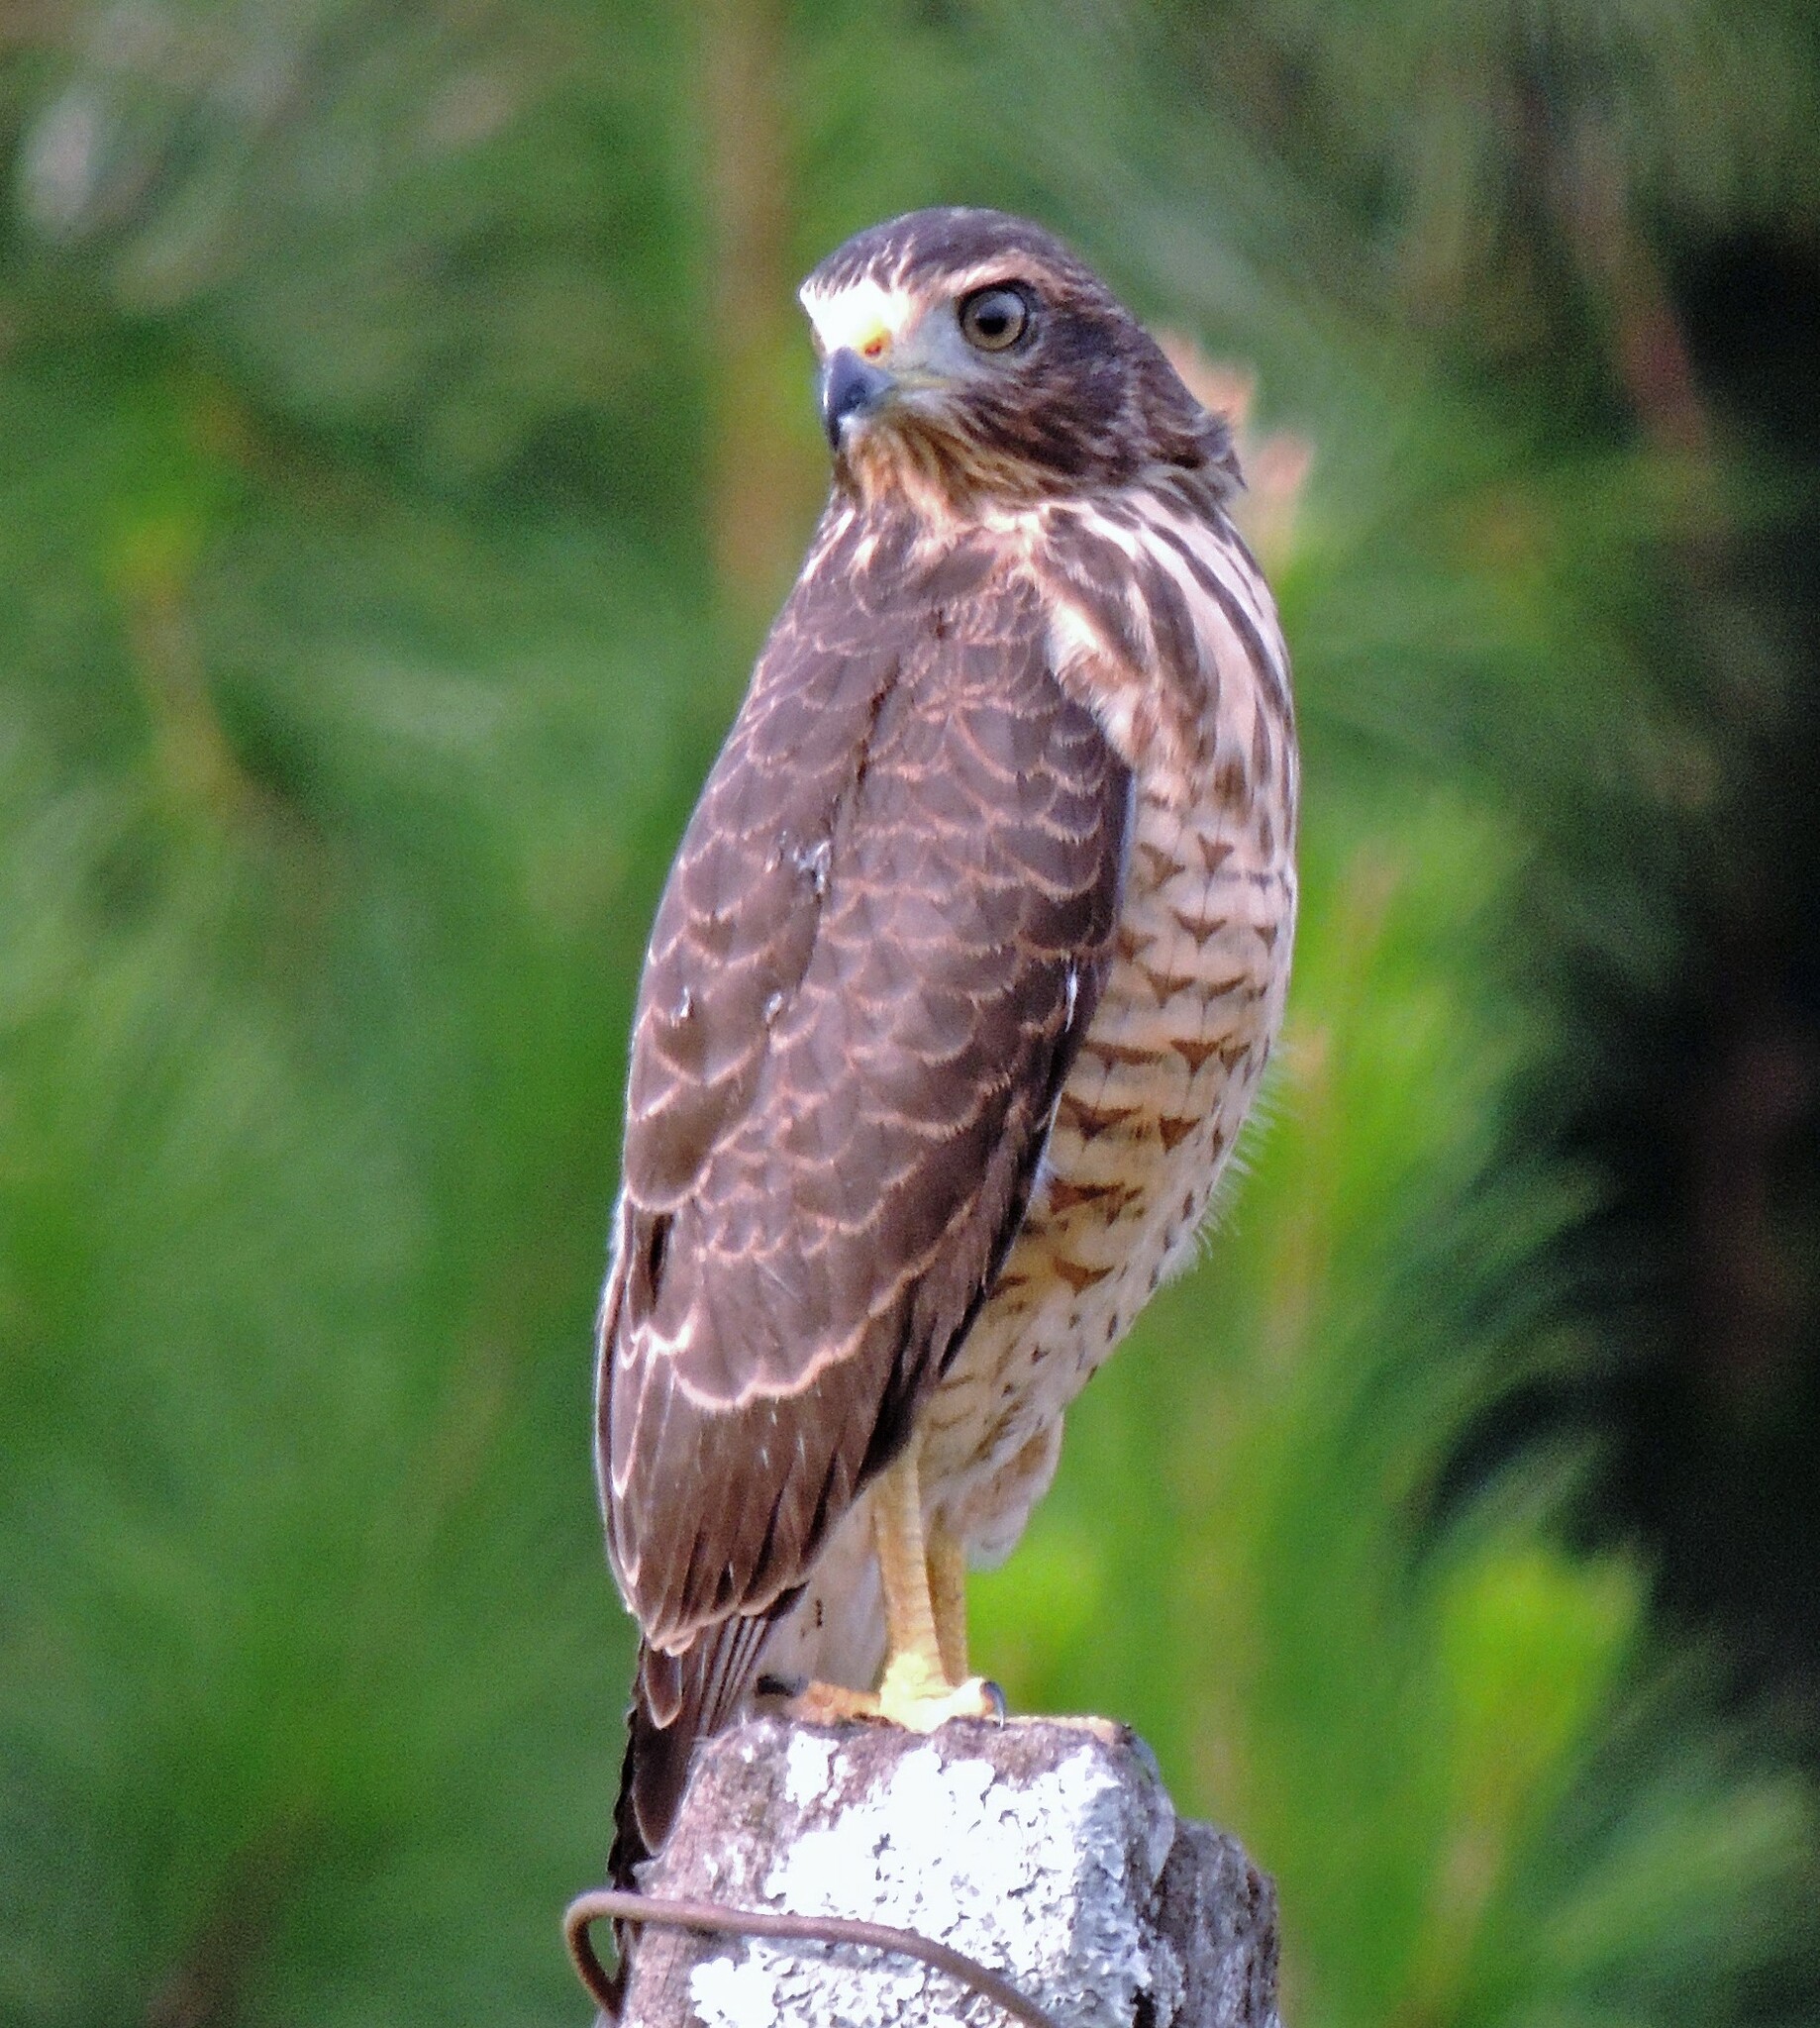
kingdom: Animalia
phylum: Chordata
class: Aves
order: Accipitriformes
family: Accipitridae
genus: Rupornis
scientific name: Rupornis magnirostris
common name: Roadside hawk
